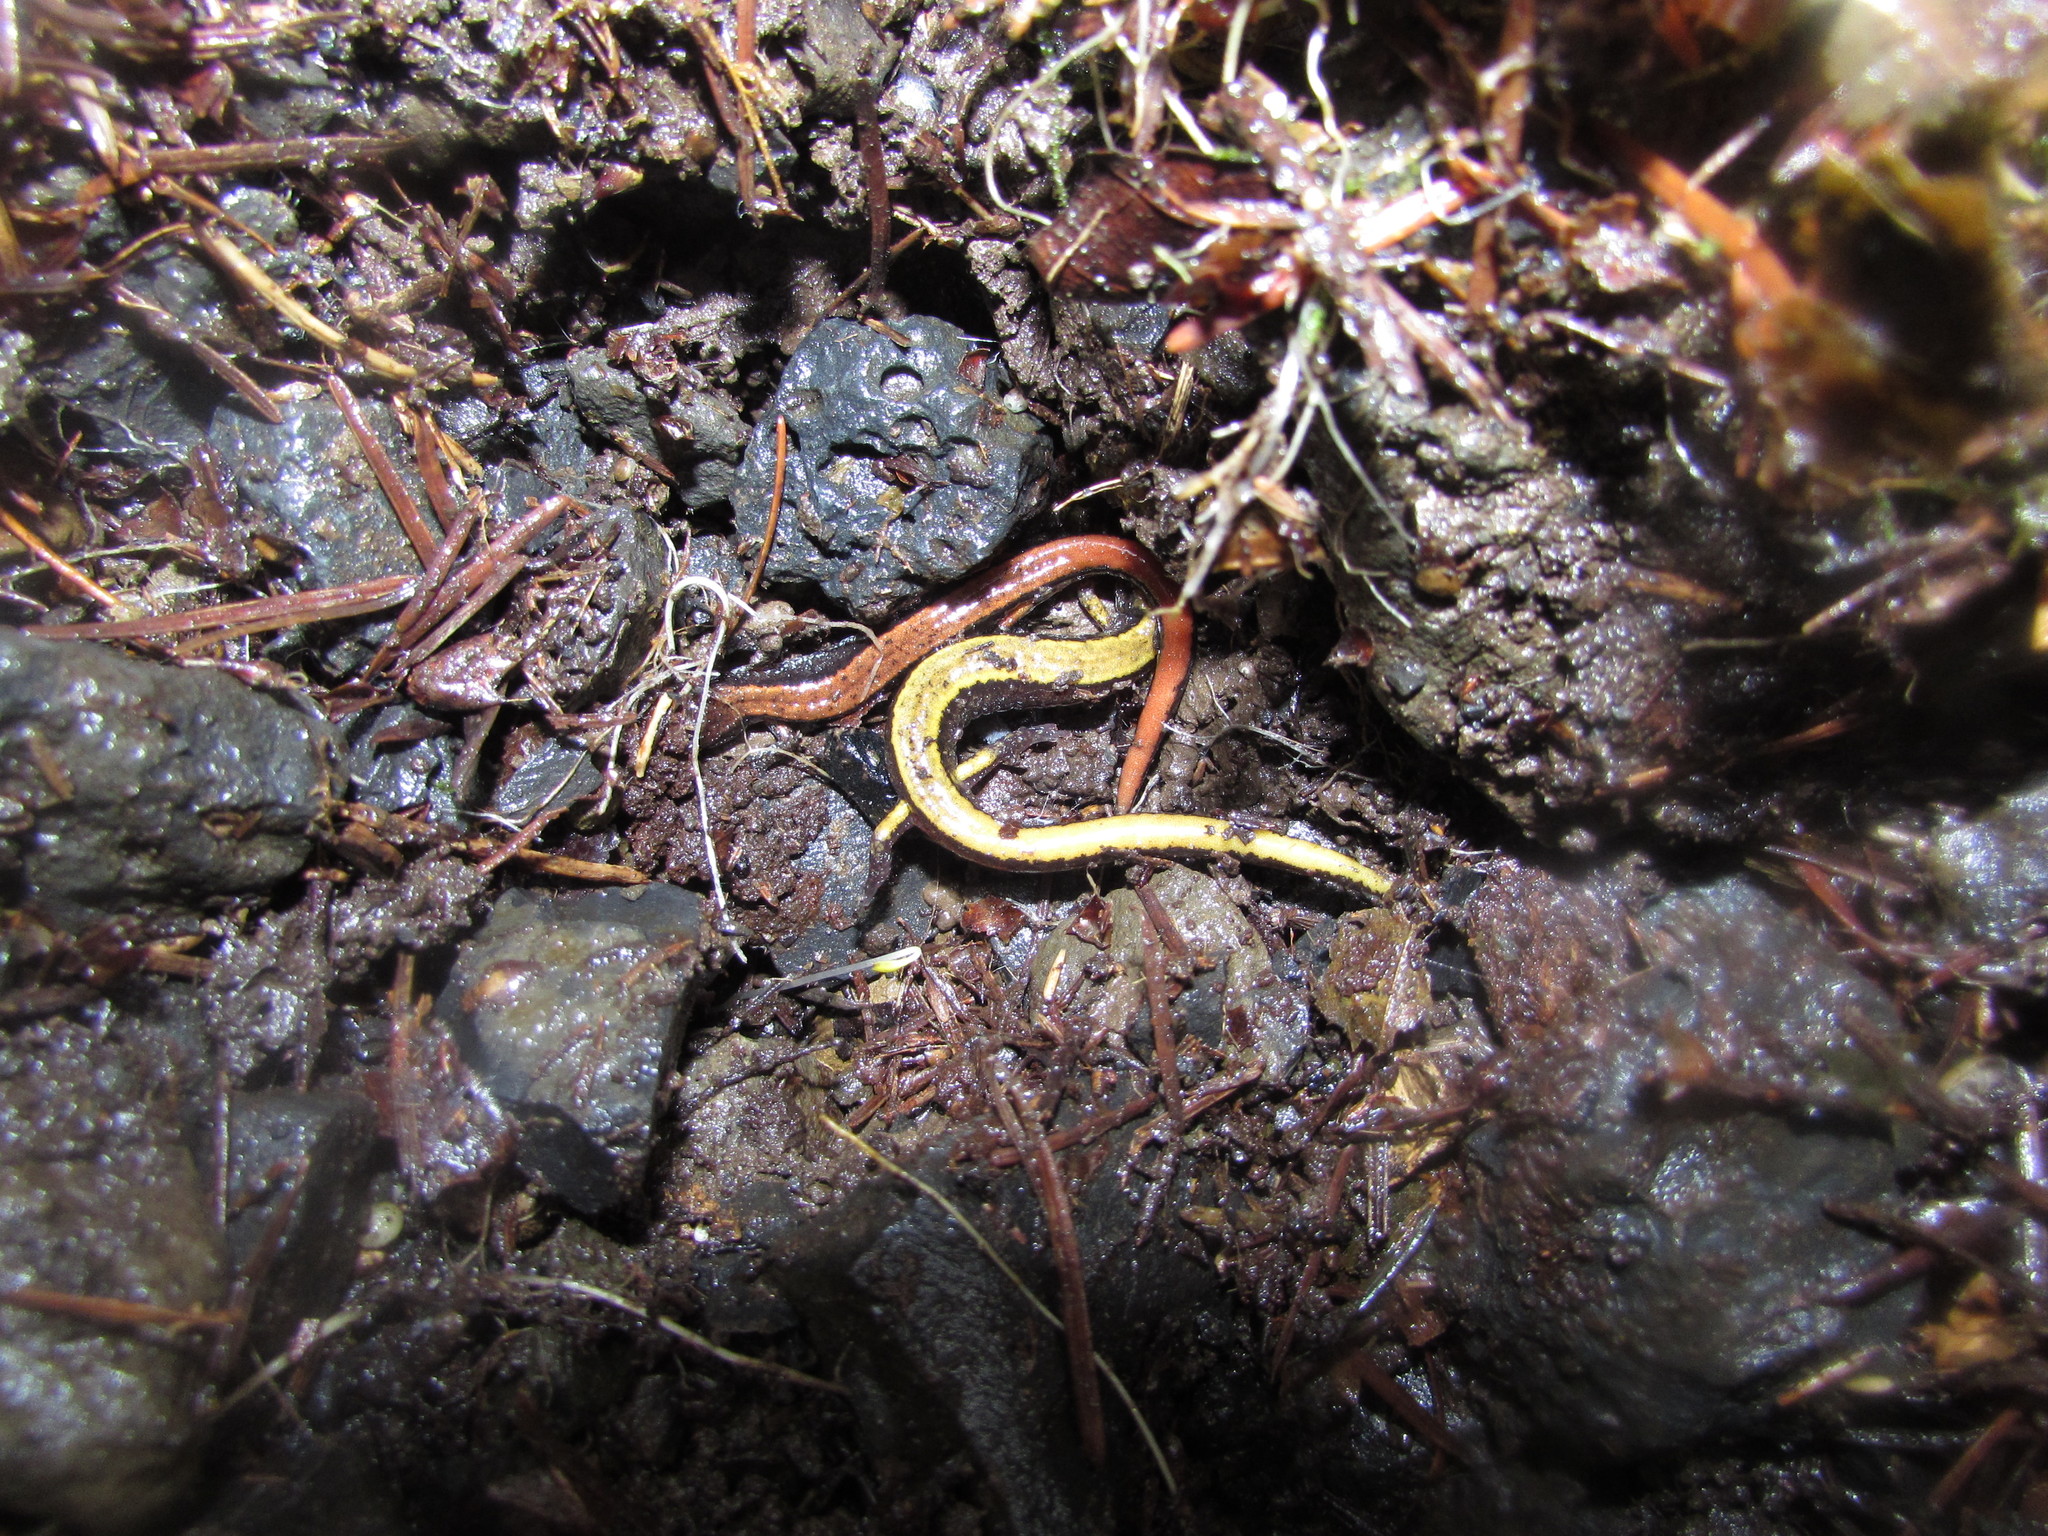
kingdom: Animalia
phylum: Chordata
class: Amphibia
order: Caudata
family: Plethodontidae
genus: Plethodon
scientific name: Plethodon vehiculum
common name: Western red-backed salamander
